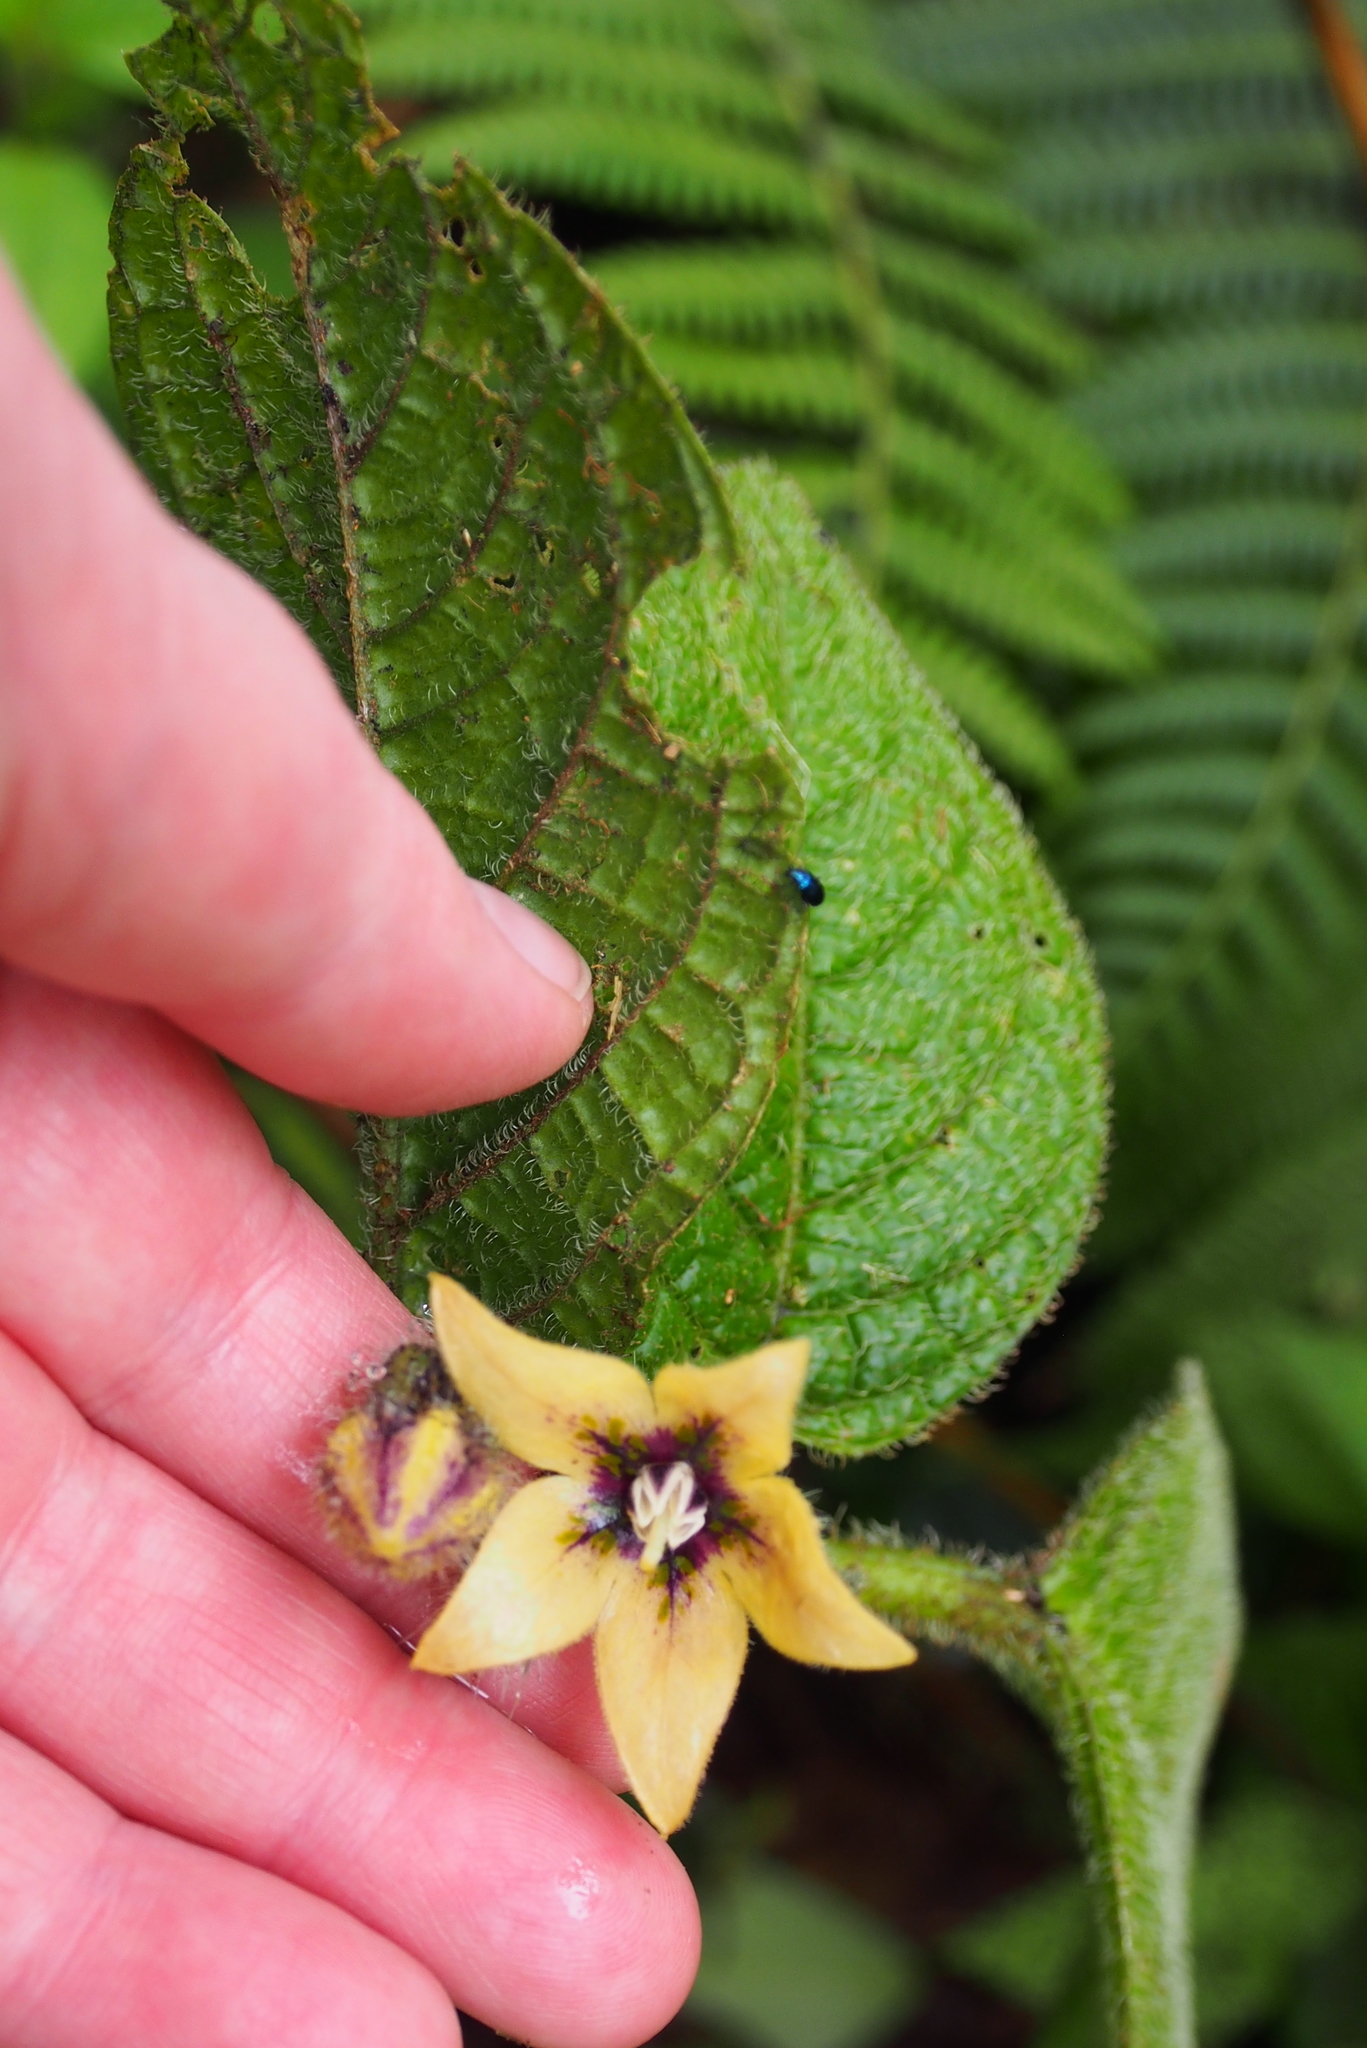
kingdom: Plantae
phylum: Tracheophyta
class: Magnoliopsida
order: Solanales
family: Solanaceae
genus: Witheringia
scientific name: Witheringia maculata
